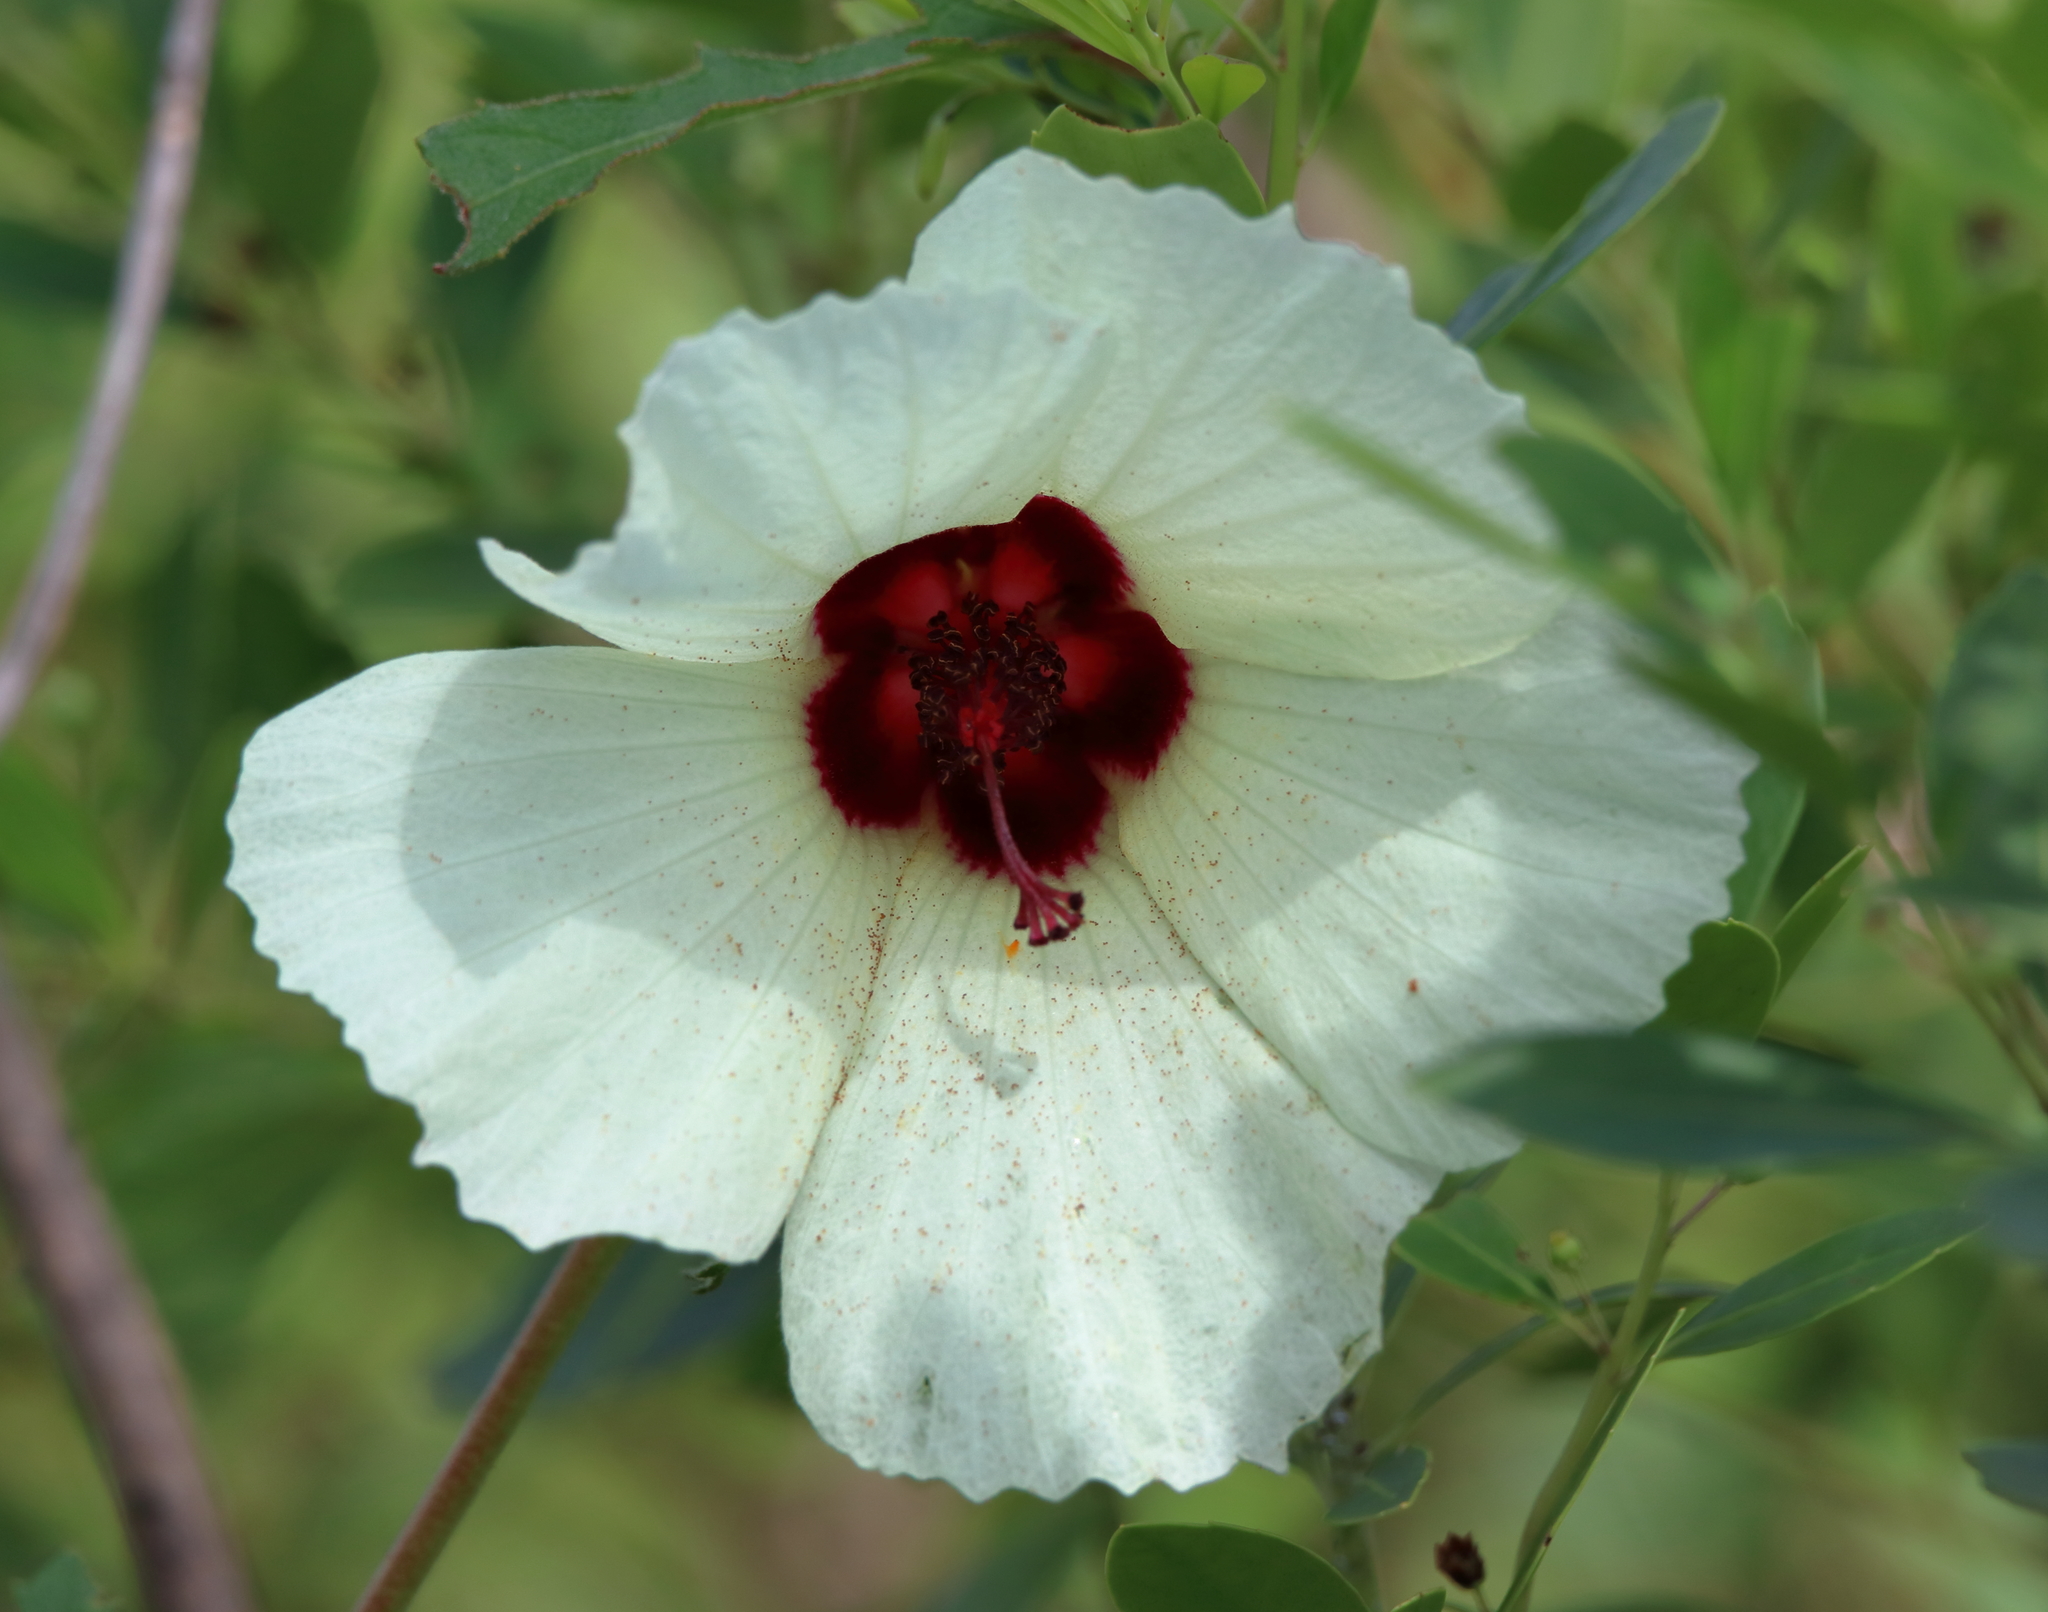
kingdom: Plantae
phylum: Tracheophyta
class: Magnoliopsida
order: Malvales
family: Malvaceae
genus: Hibiscus
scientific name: Hibiscus aculeatus
